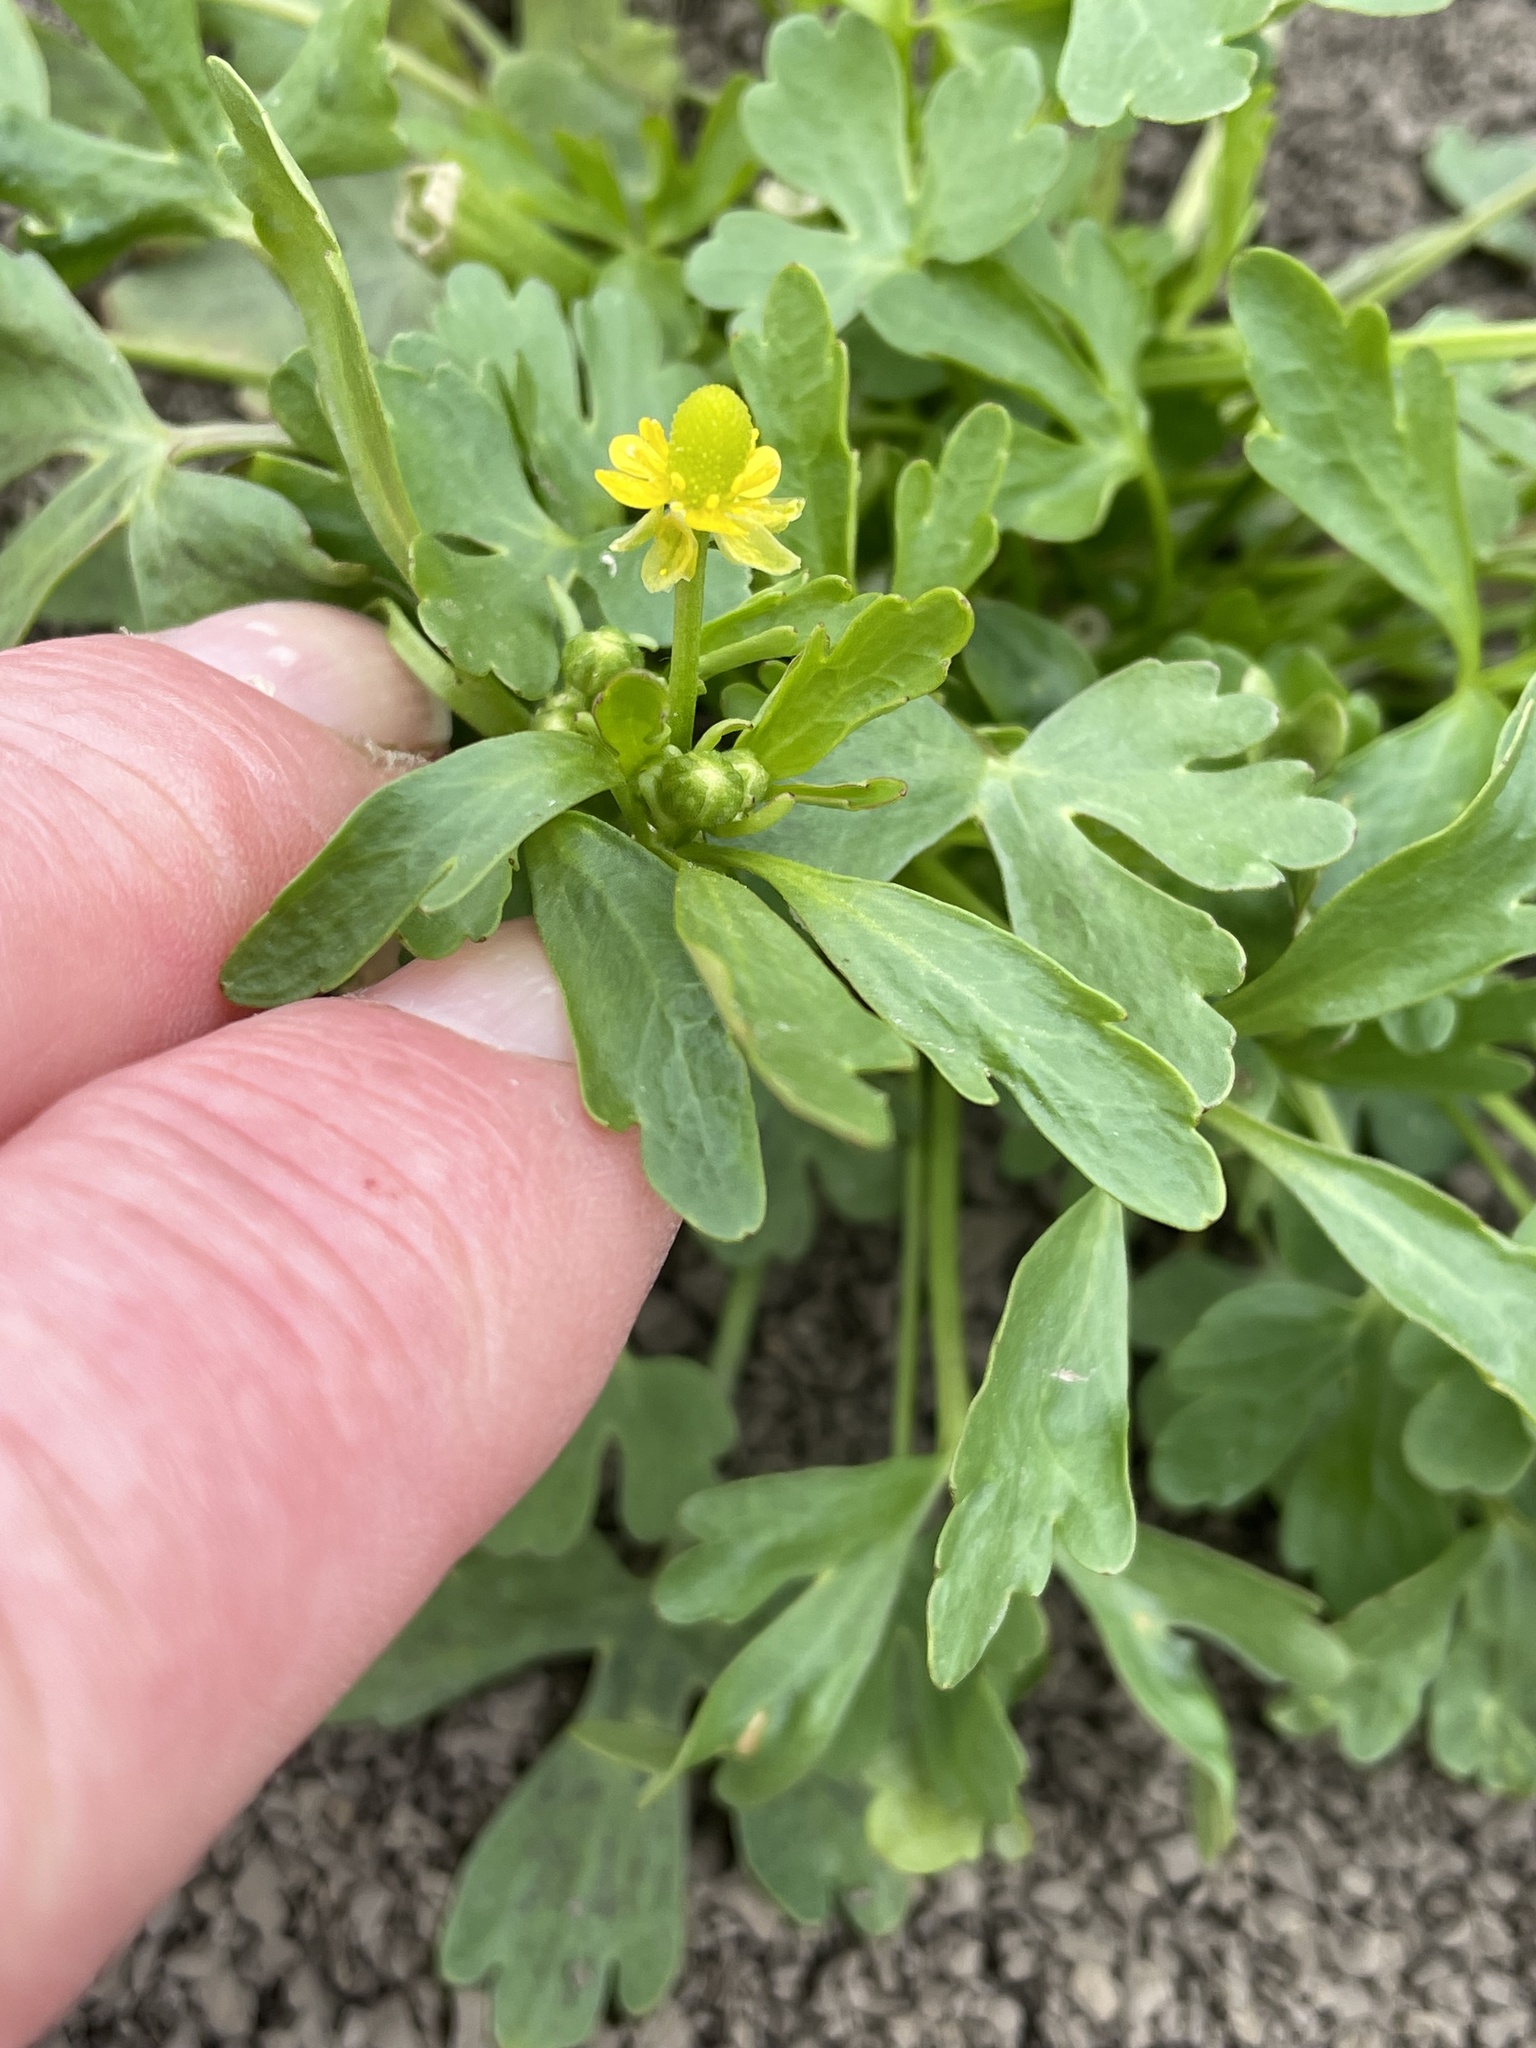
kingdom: Plantae
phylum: Tracheophyta
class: Magnoliopsida
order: Ranunculales
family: Ranunculaceae
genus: Ranunculus
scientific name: Ranunculus sceleratus
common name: Celery-leaved buttercup
